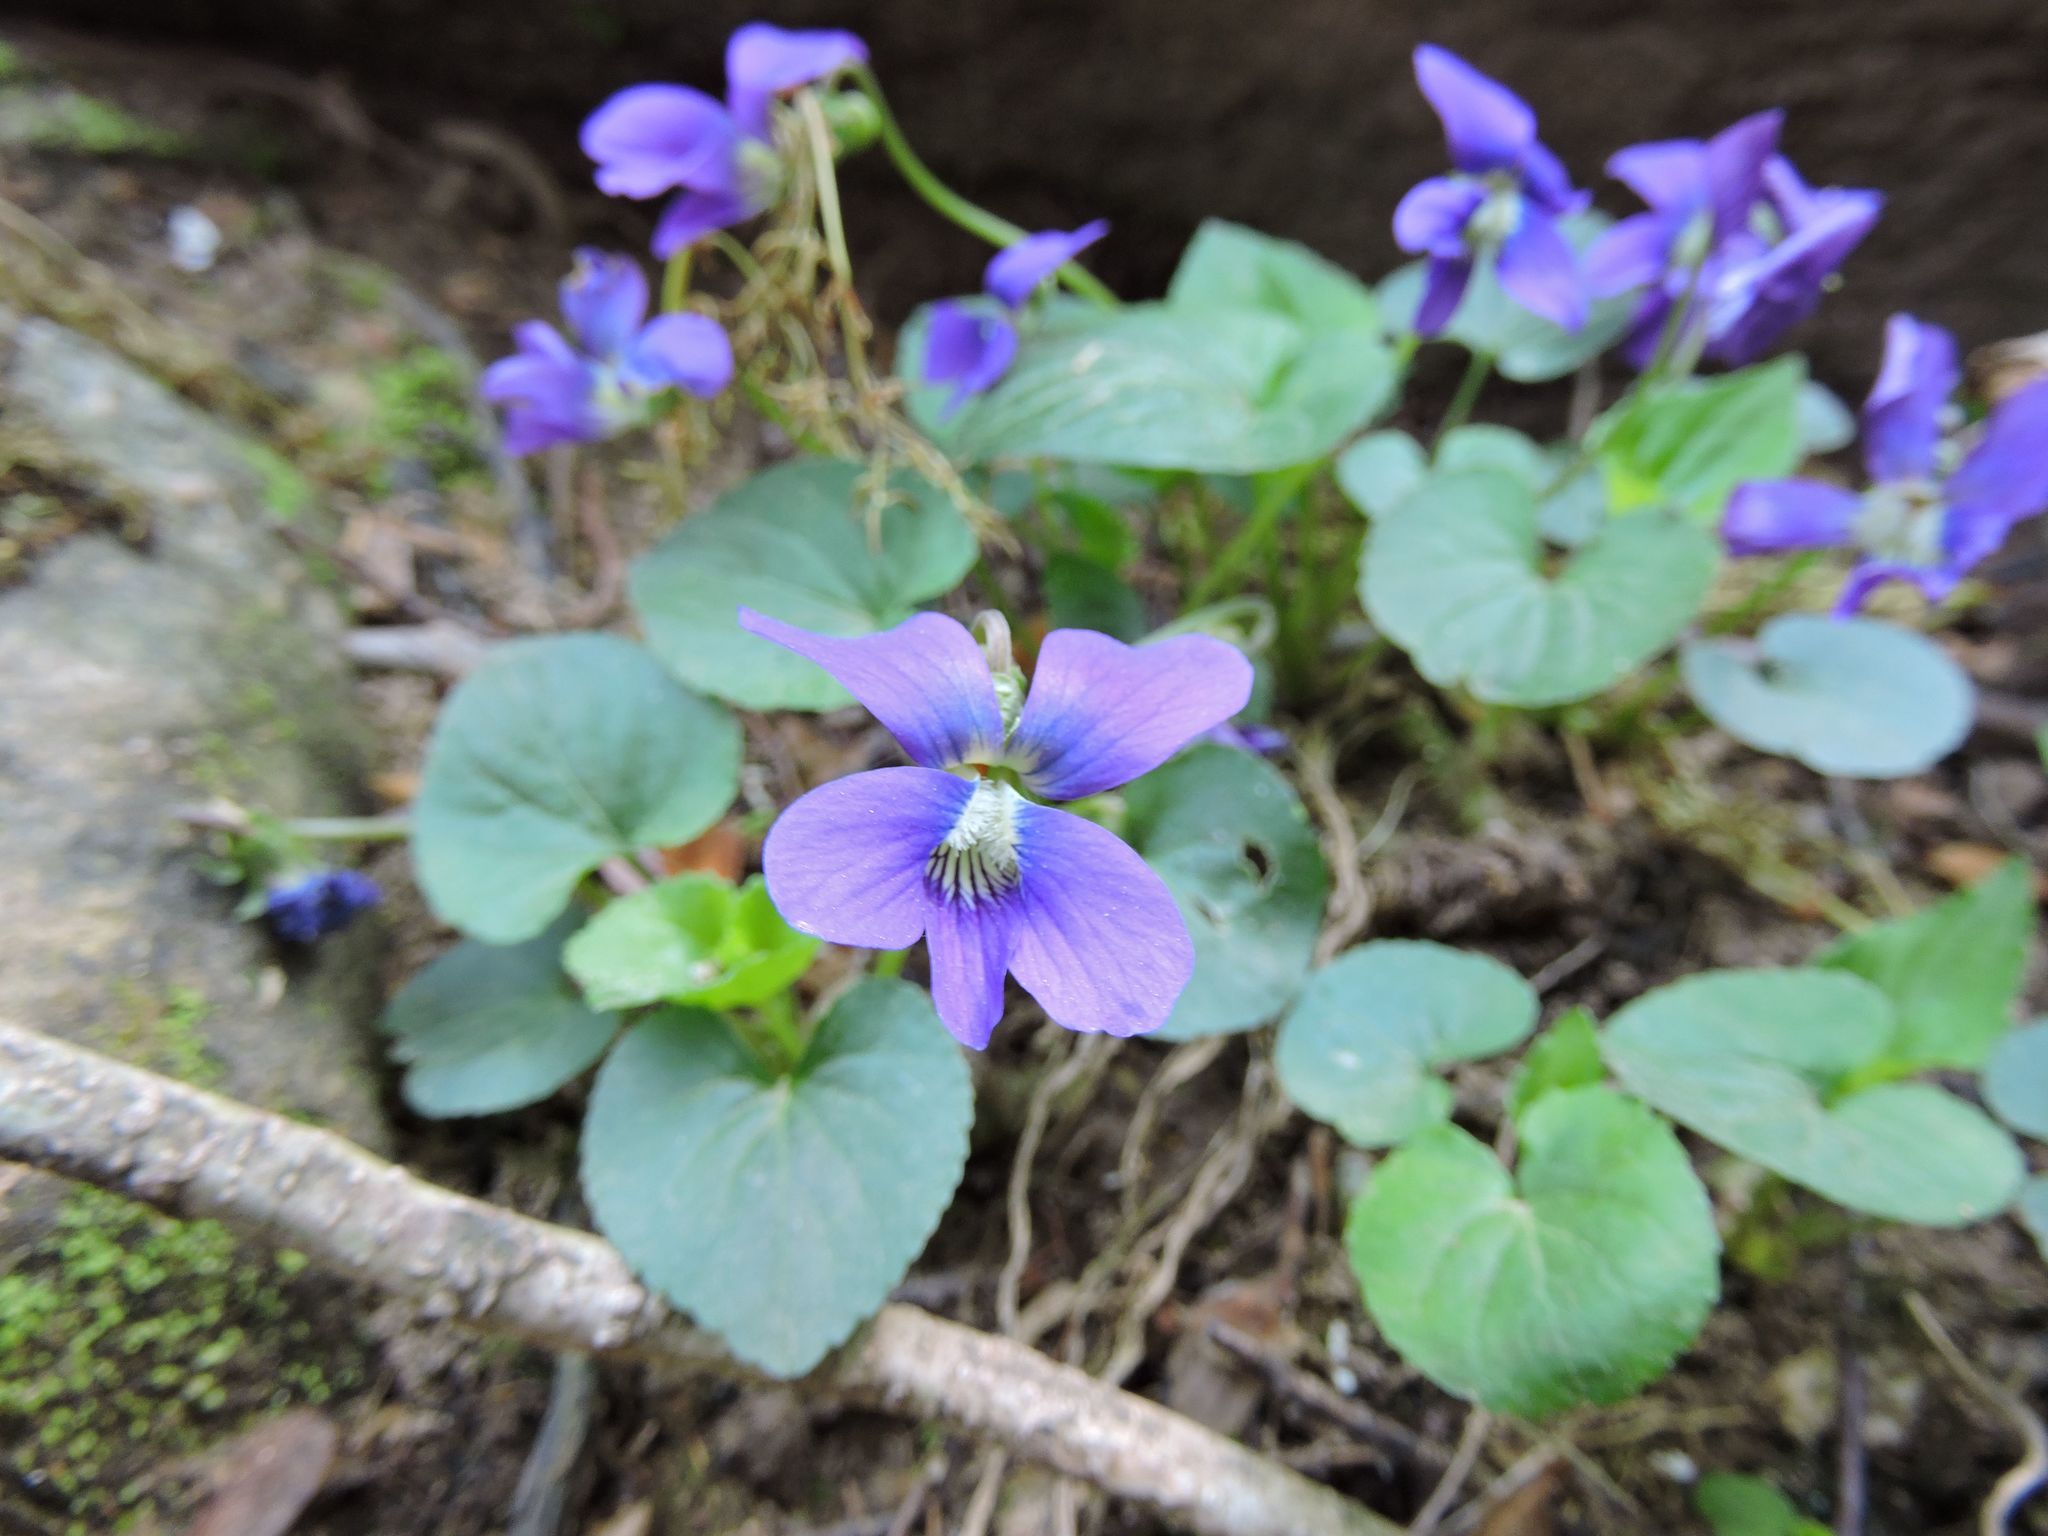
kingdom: Plantae
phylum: Tracheophyta
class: Magnoliopsida
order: Malpighiales
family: Violaceae
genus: Viola
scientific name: Viola sororia
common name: Dooryard violet
